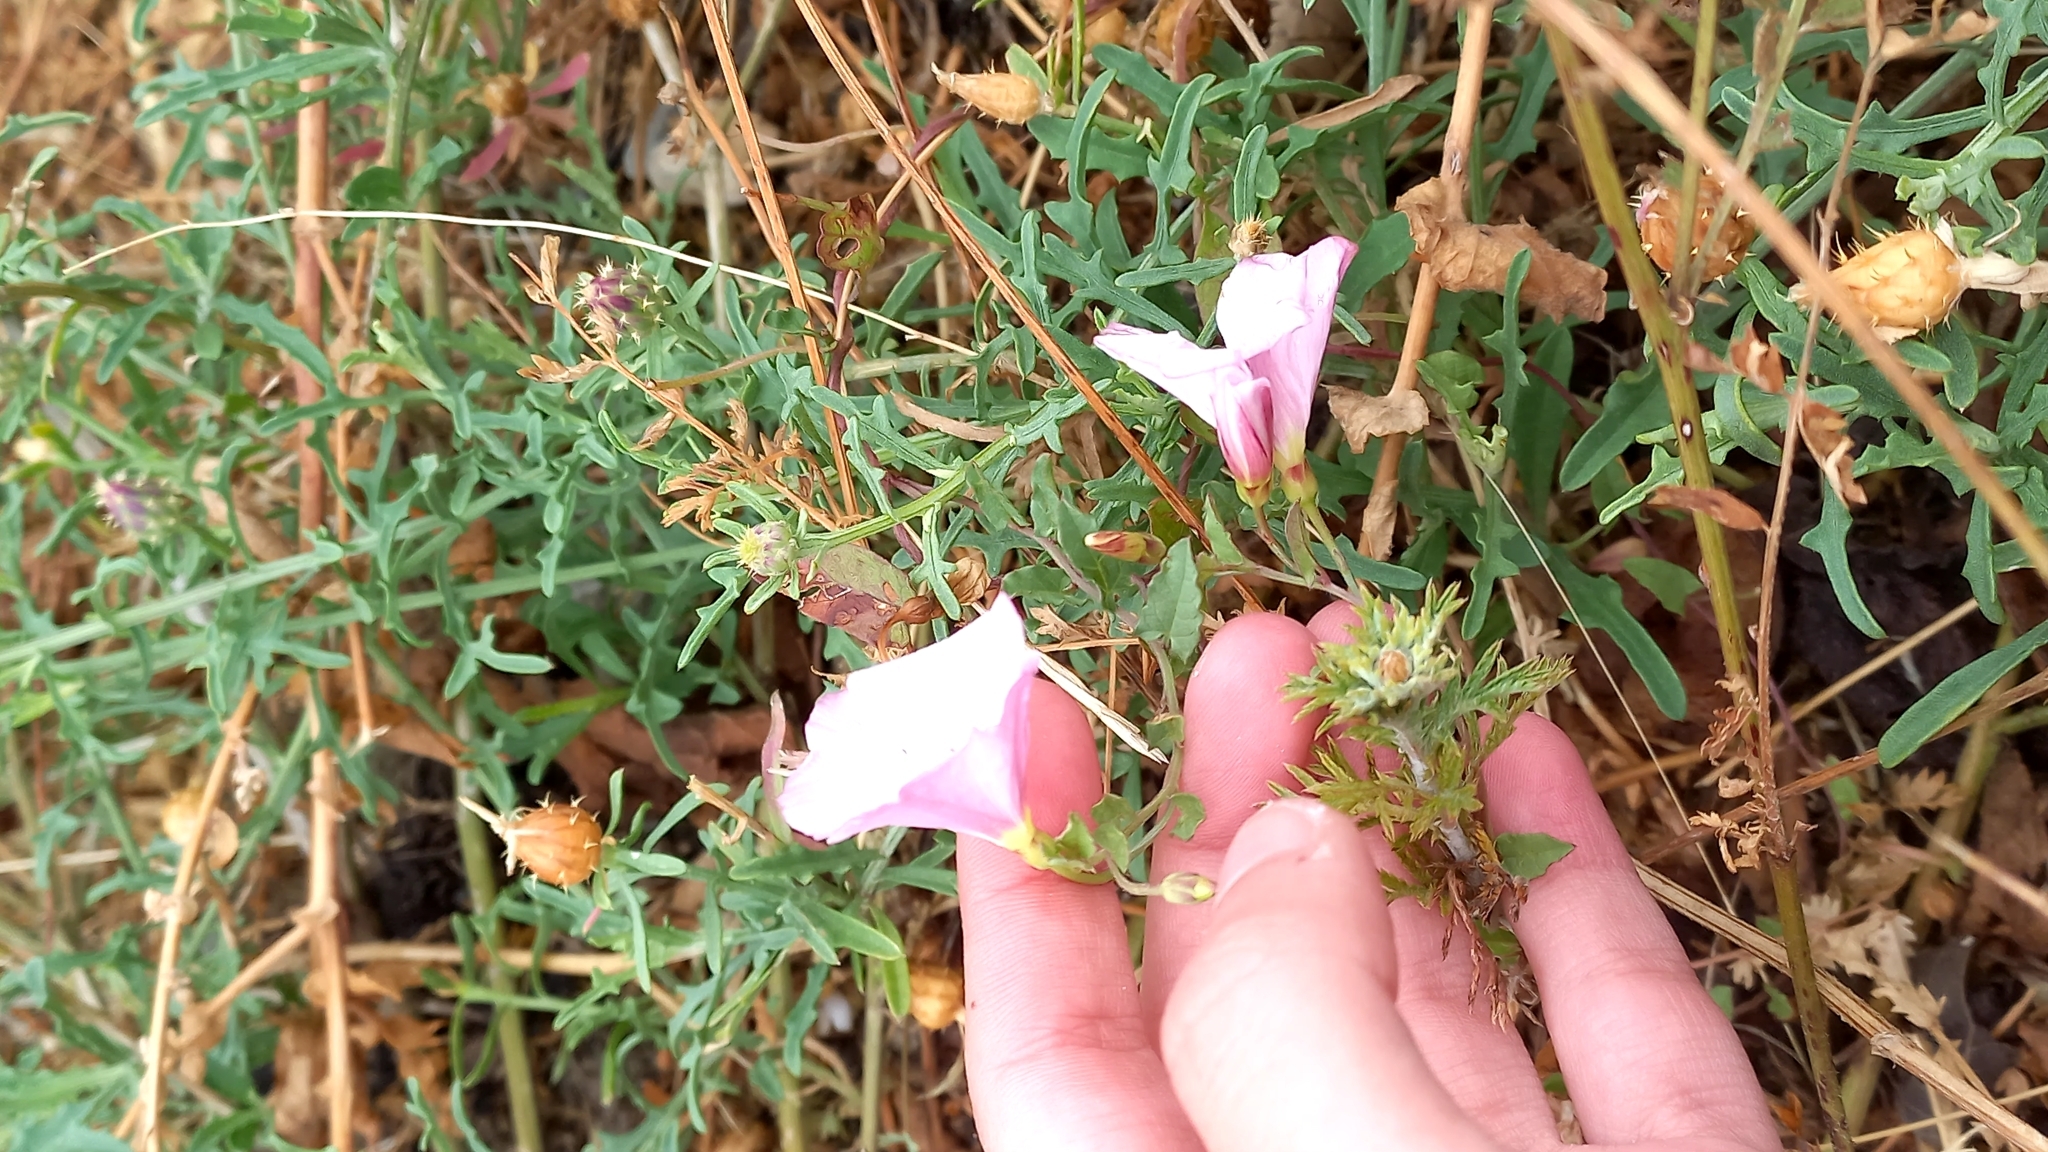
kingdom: Plantae
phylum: Tracheophyta
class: Magnoliopsida
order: Solanales
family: Convolvulaceae
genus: Convolvulus
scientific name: Convolvulus arvensis
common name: Field bindweed
